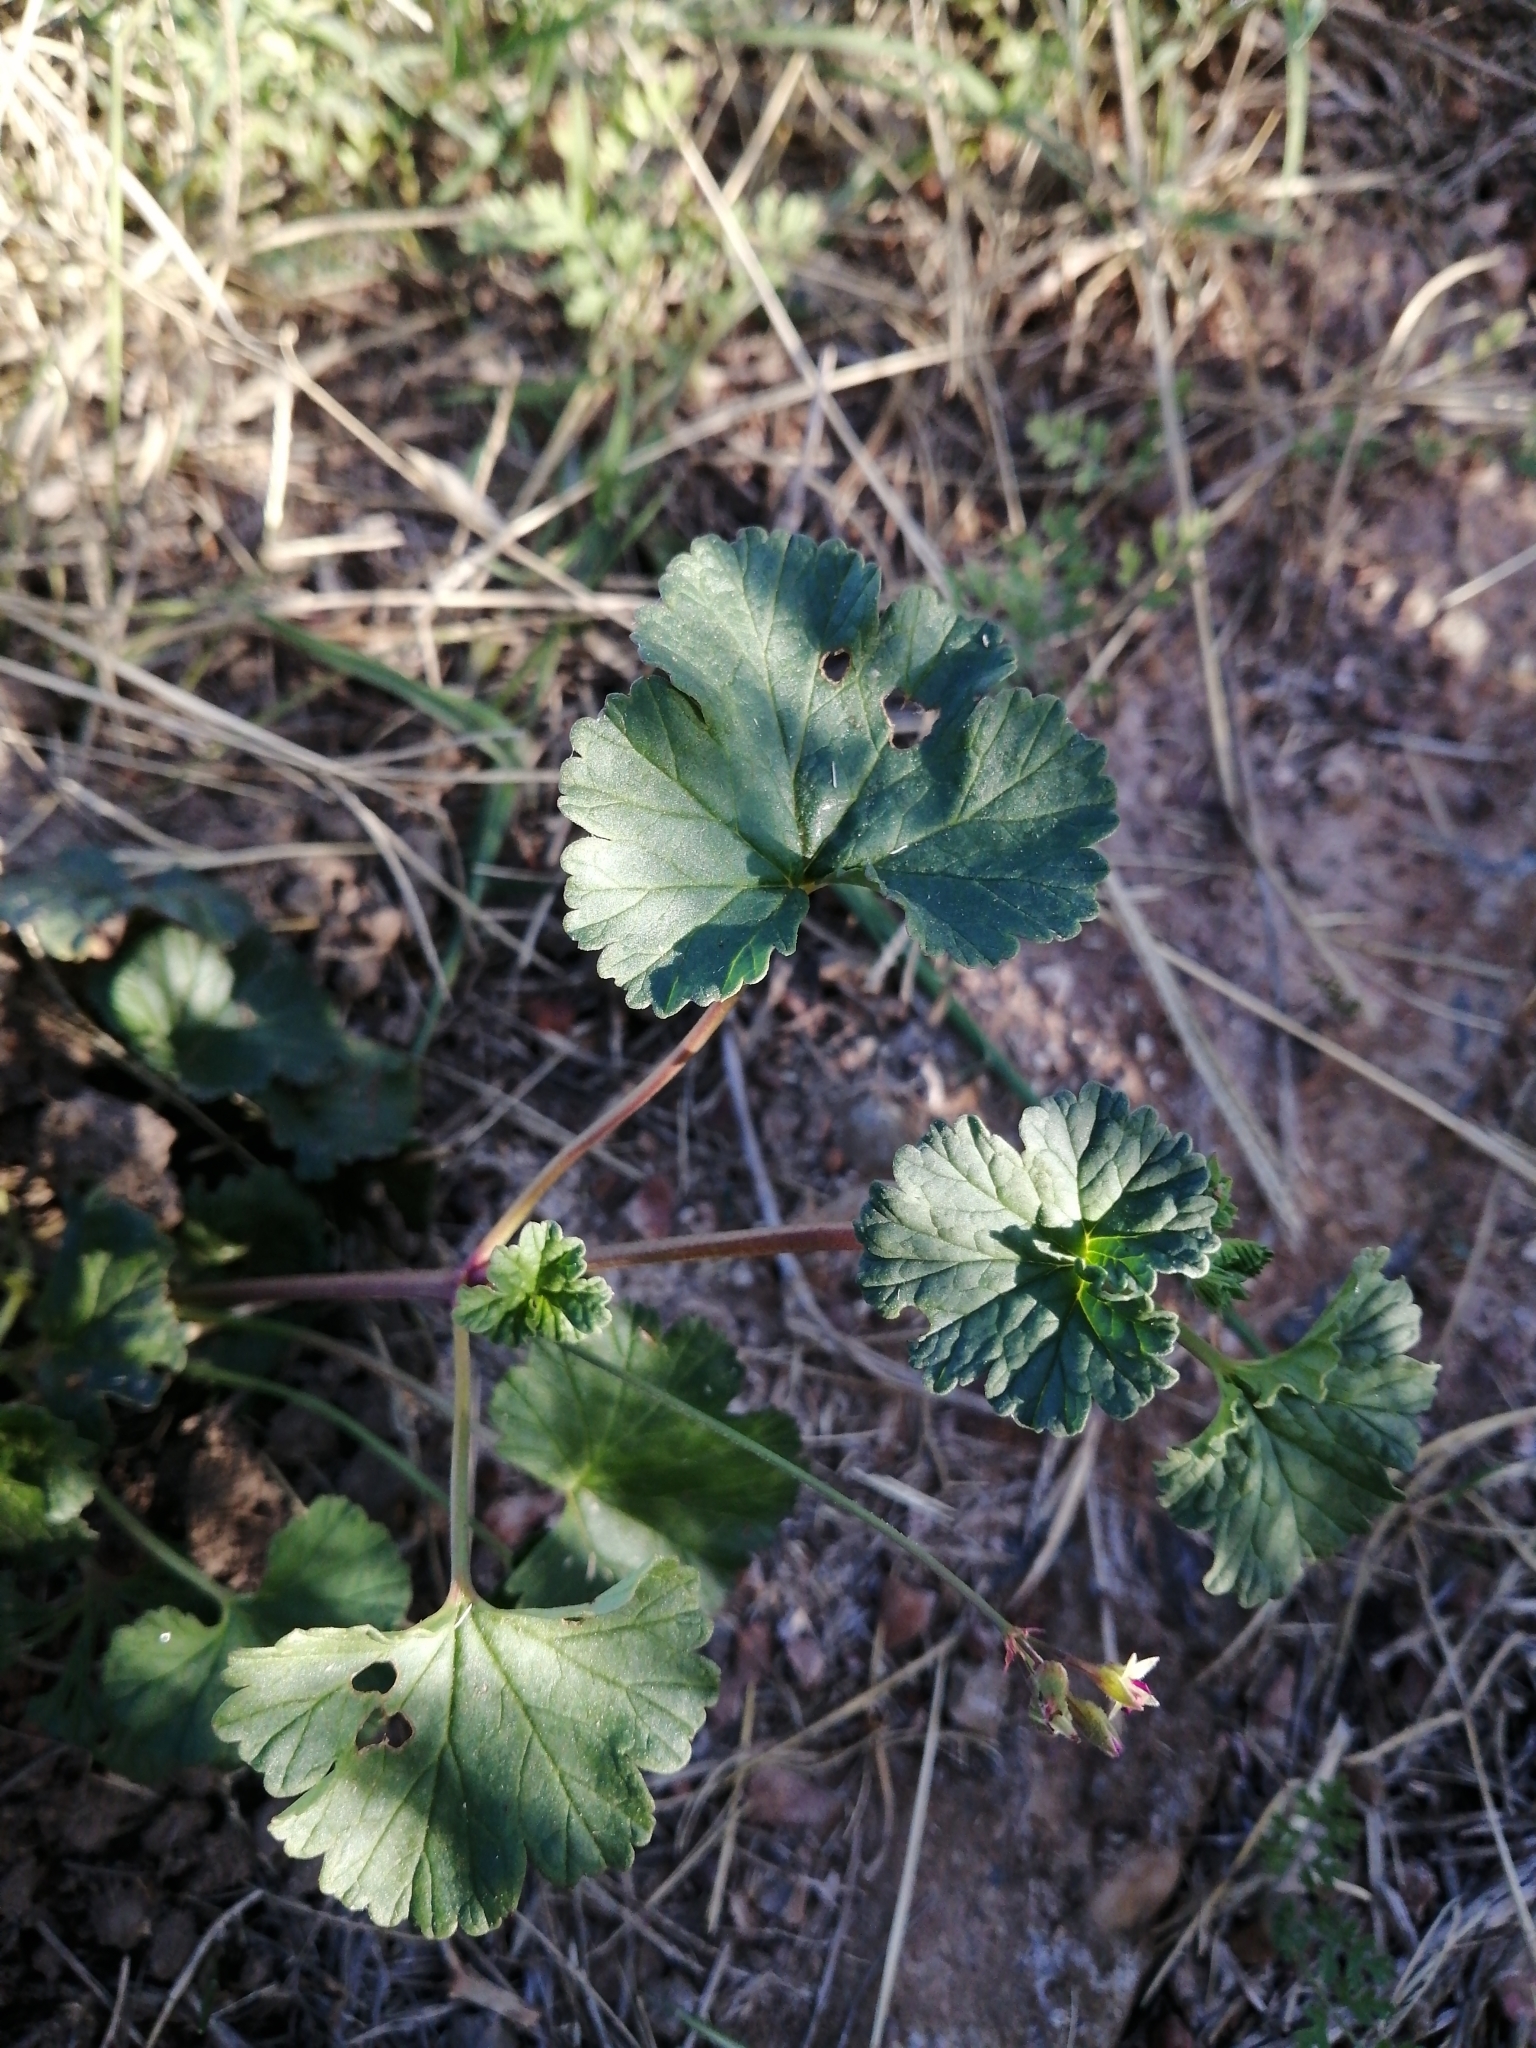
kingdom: Plantae
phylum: Tracheophyta
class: Magnoliopsida
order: Geraniales
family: Geraniaceae
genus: Pelargonium
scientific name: Pelargonium grossularioides
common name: Gooseberry geranium
